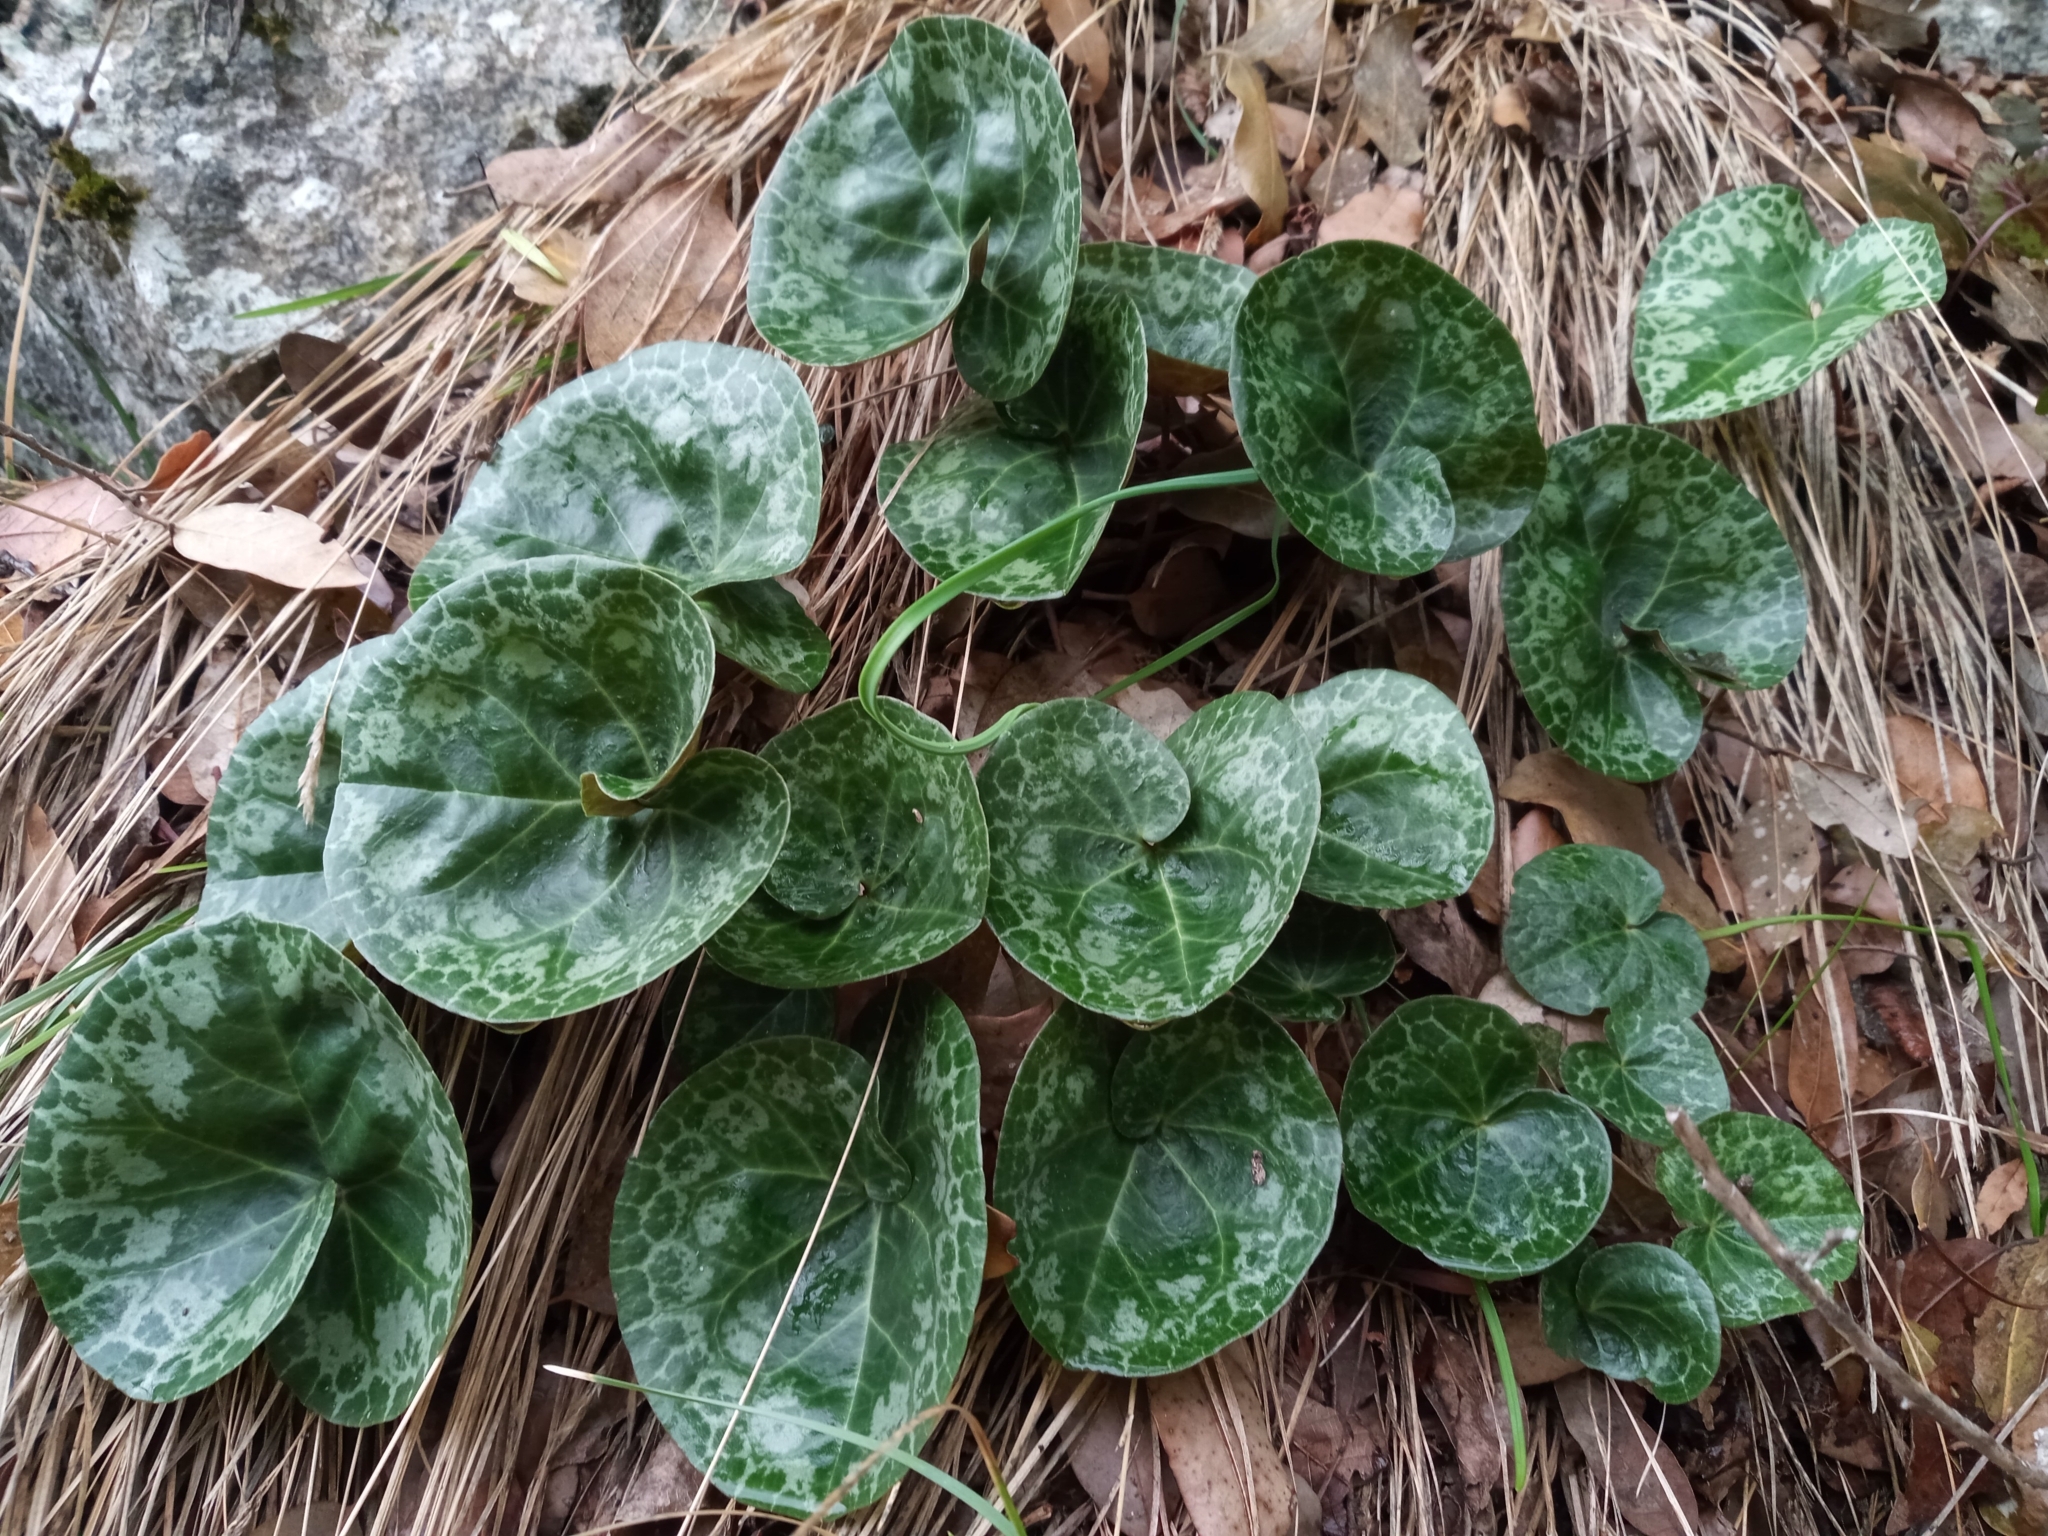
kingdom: Plantae
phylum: Tracheophyta
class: Magnoliopsida
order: Ericales
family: Primulaceae
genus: Cyclamen
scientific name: Cyclamen purpurascens
